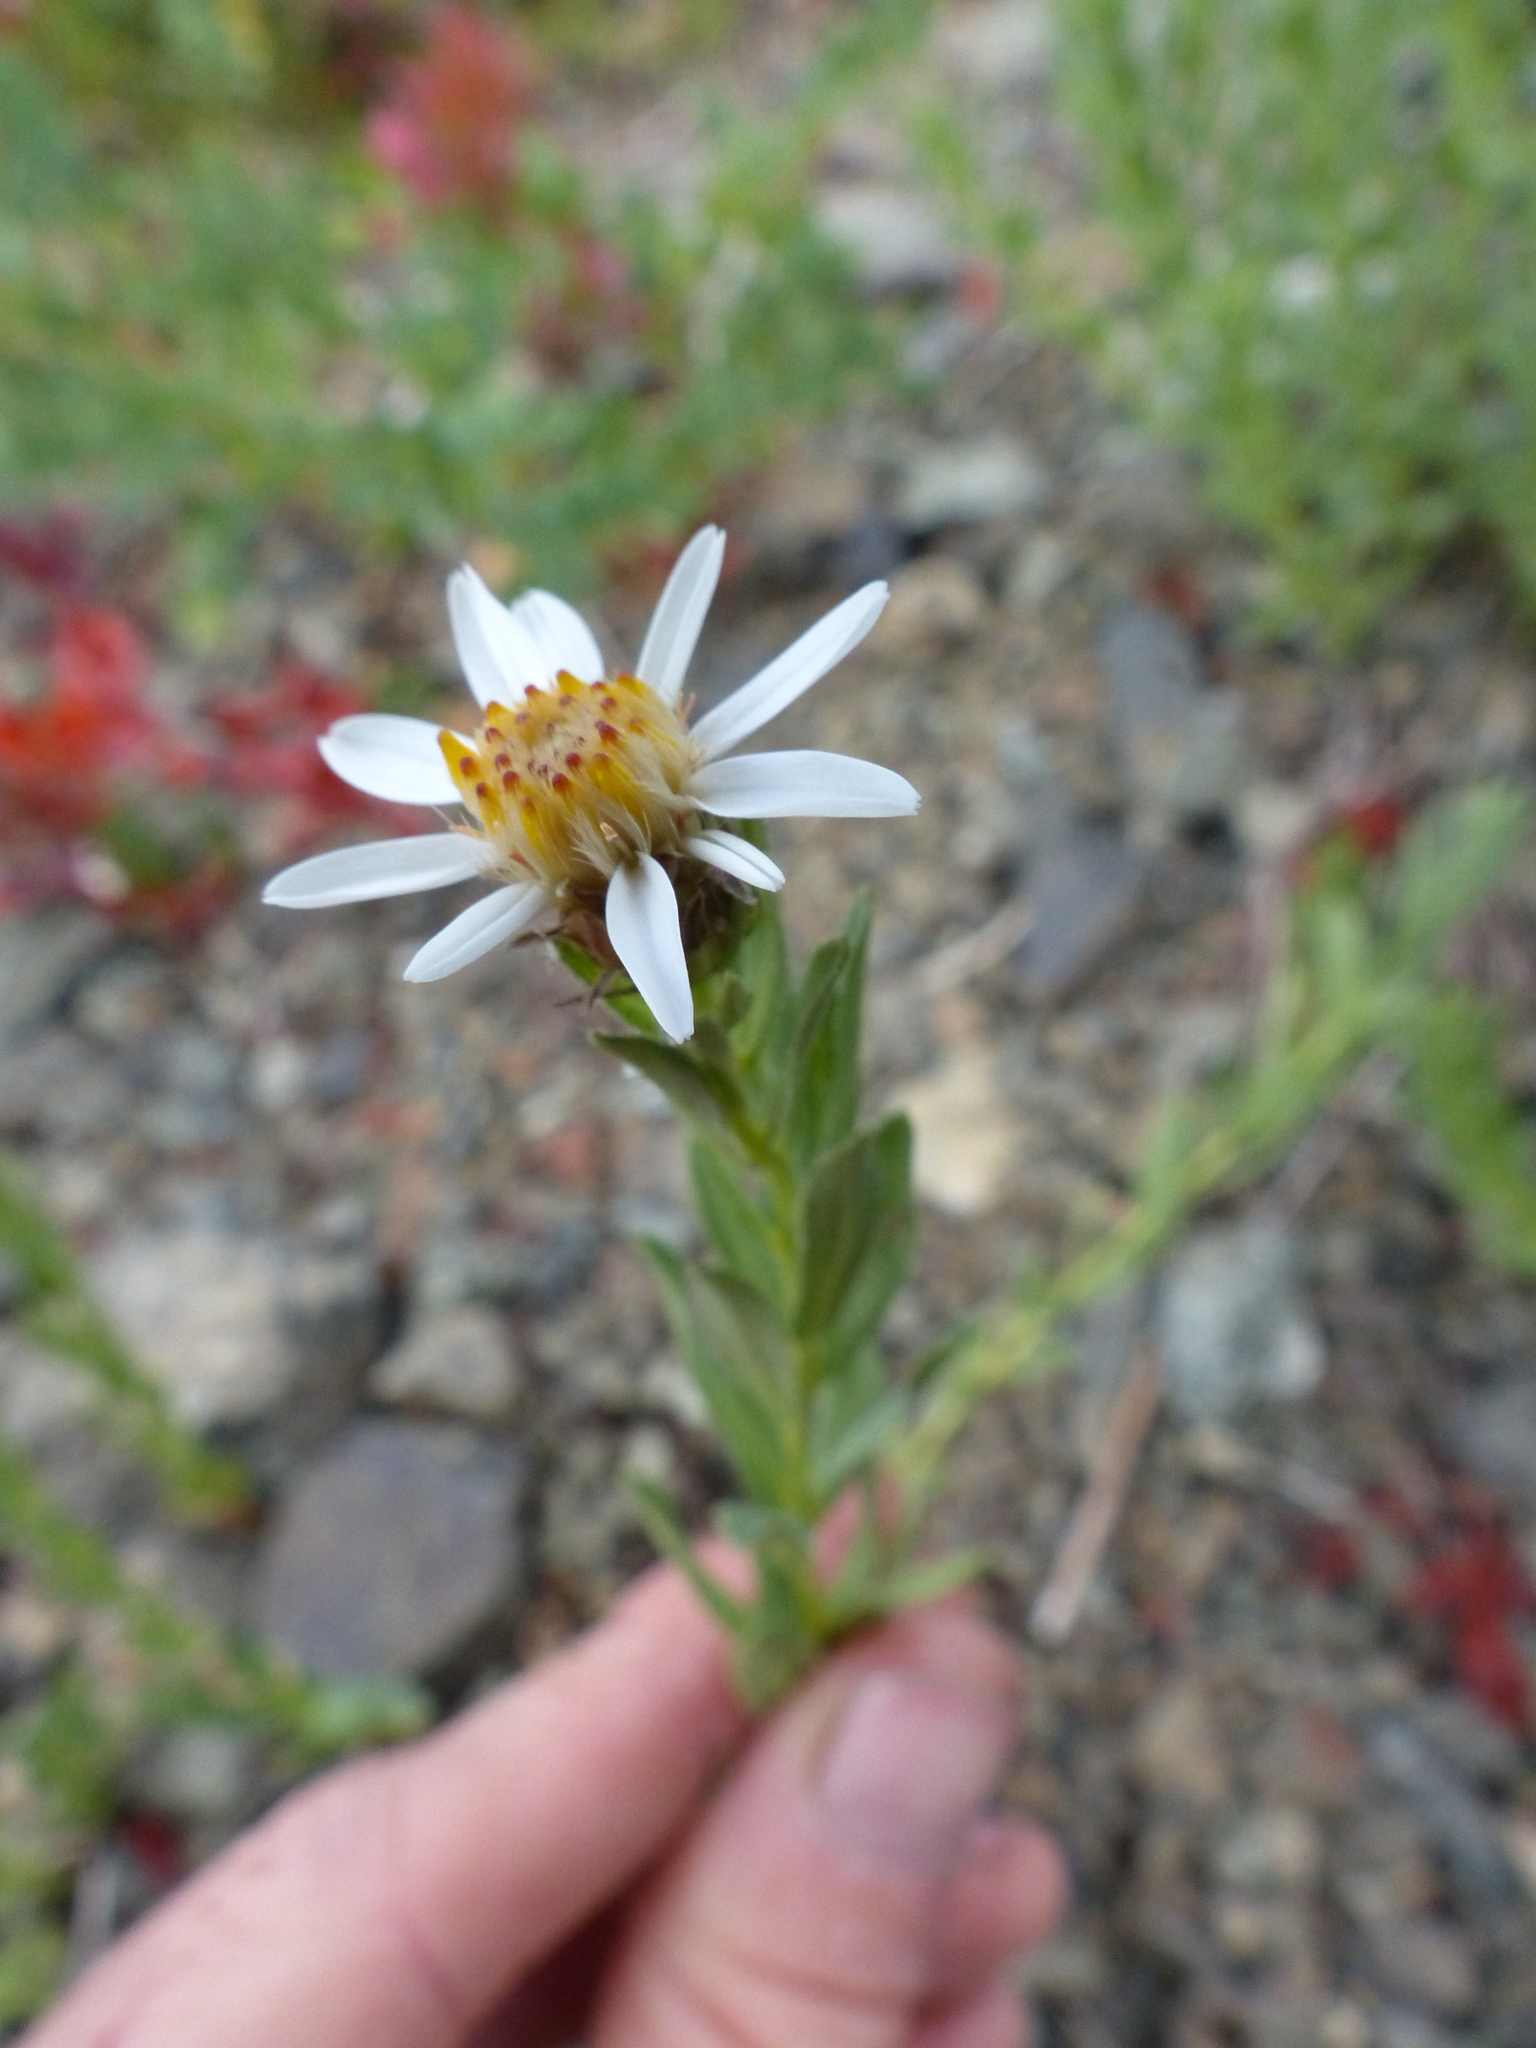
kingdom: Plantae
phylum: Tracheophyta
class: Magnoliopsida
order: Asterales
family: Asteraceae
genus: Eucephalus
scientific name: Eucephalus paucicapitatus
